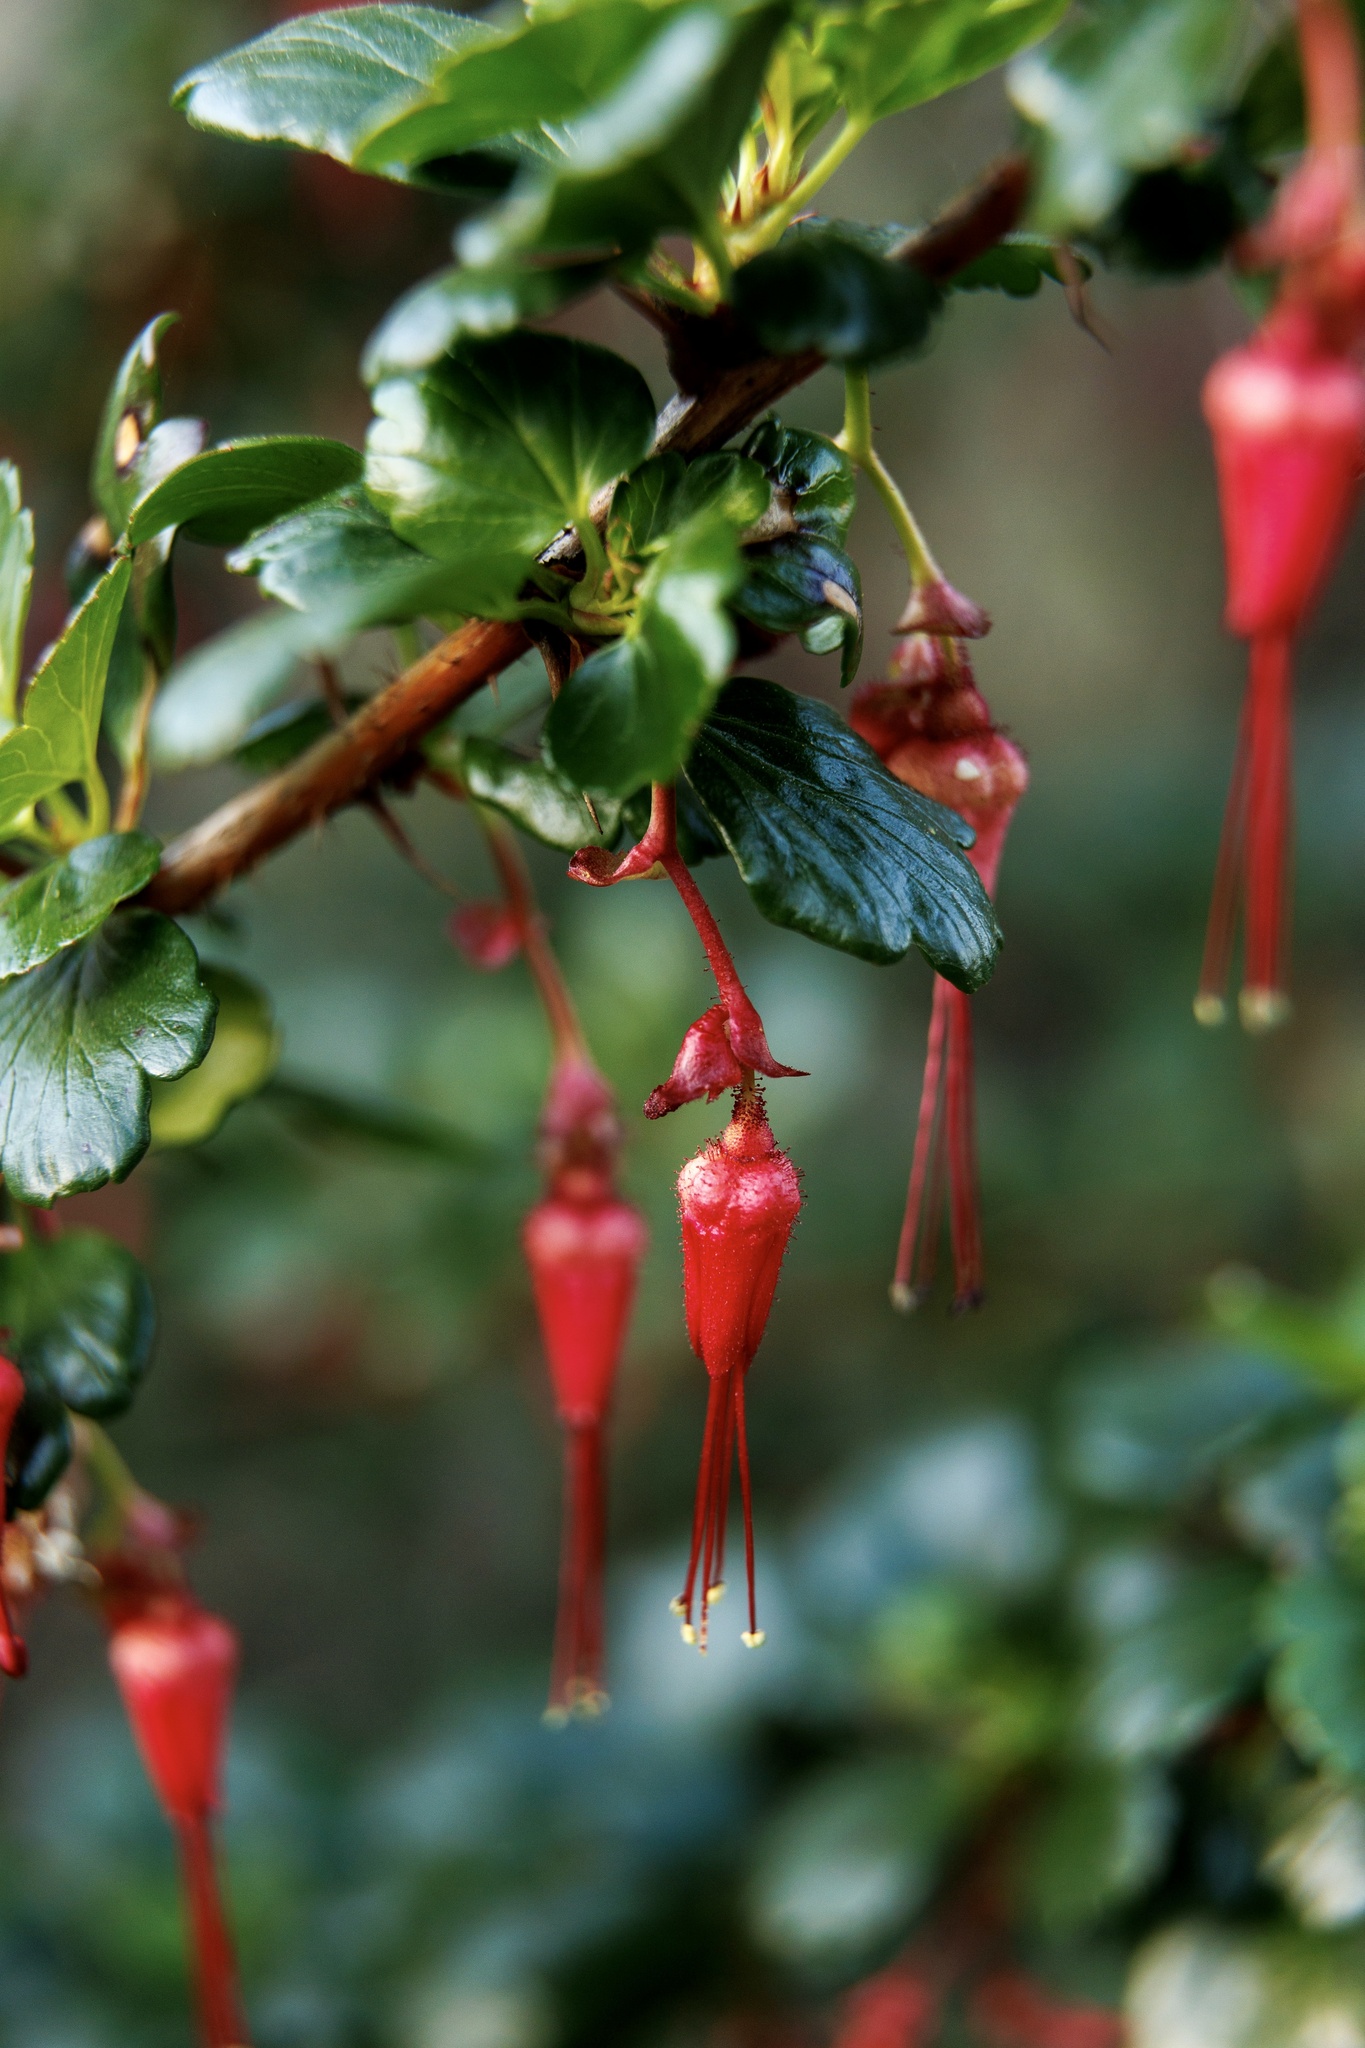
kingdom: Plantae
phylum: Tracheophyta
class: Magnoliopsida
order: Saxifragales
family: Grossulariaceae
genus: Ribes
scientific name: Ribes speciosum
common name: Fuchsia-flower gooseberry
